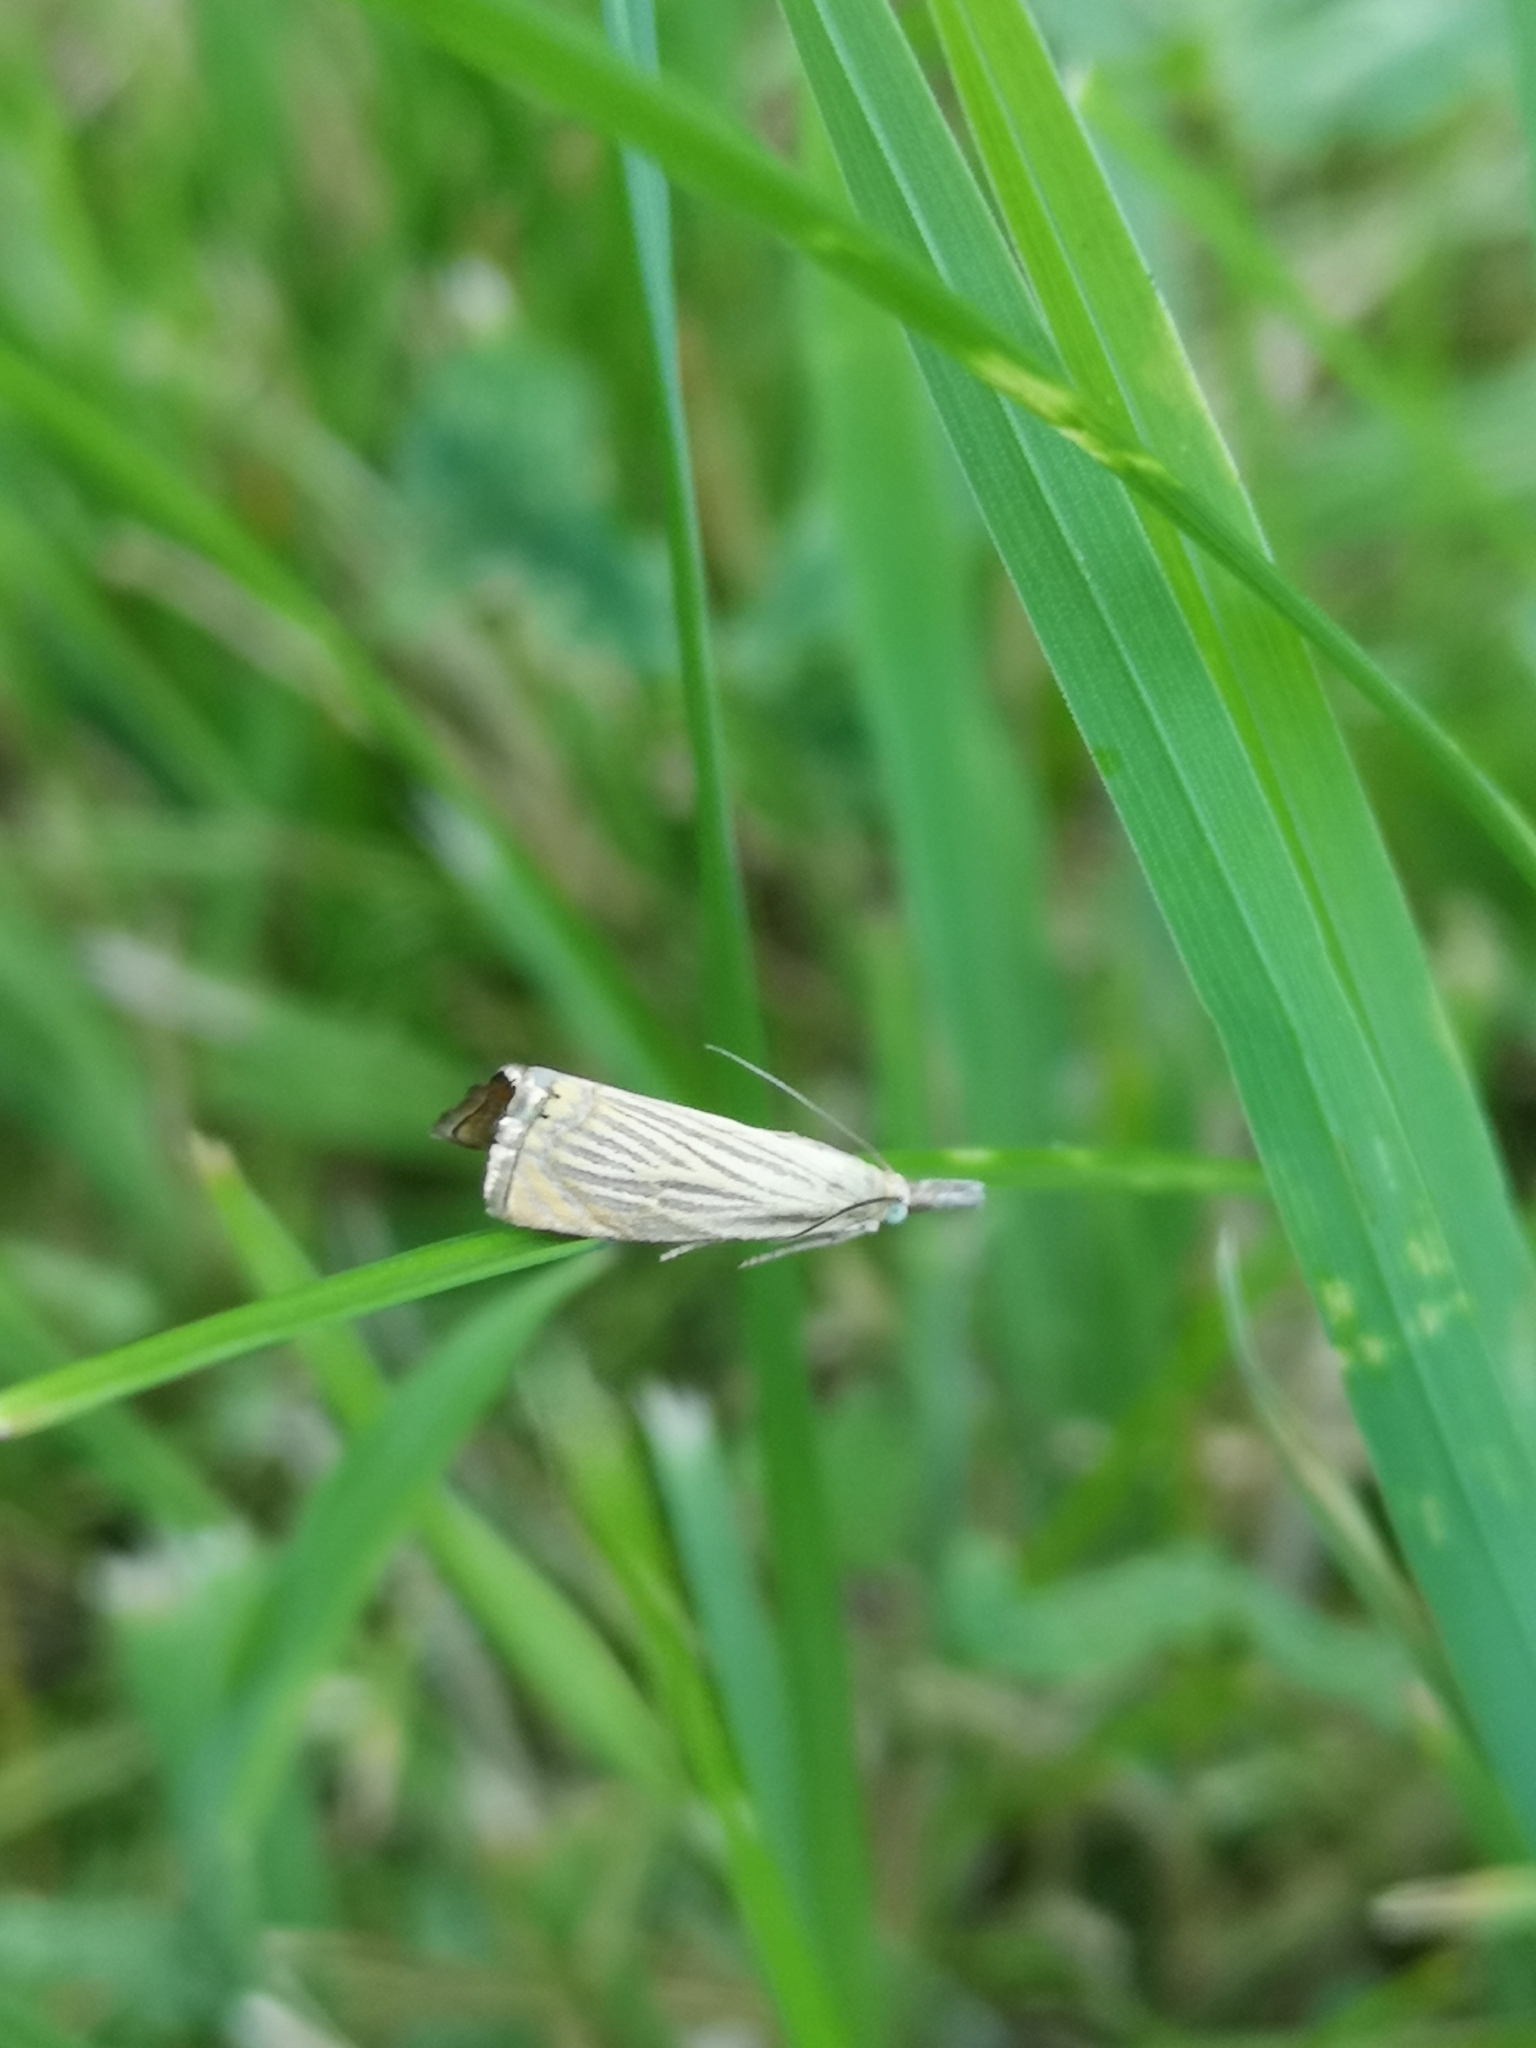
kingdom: Animalia
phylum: Arthropoda
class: Insecta
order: Lepidoptera
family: Crambidae
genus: Chrysoteuchia
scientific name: Chrysoteuchia culmella
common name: Garden grass-veneer
